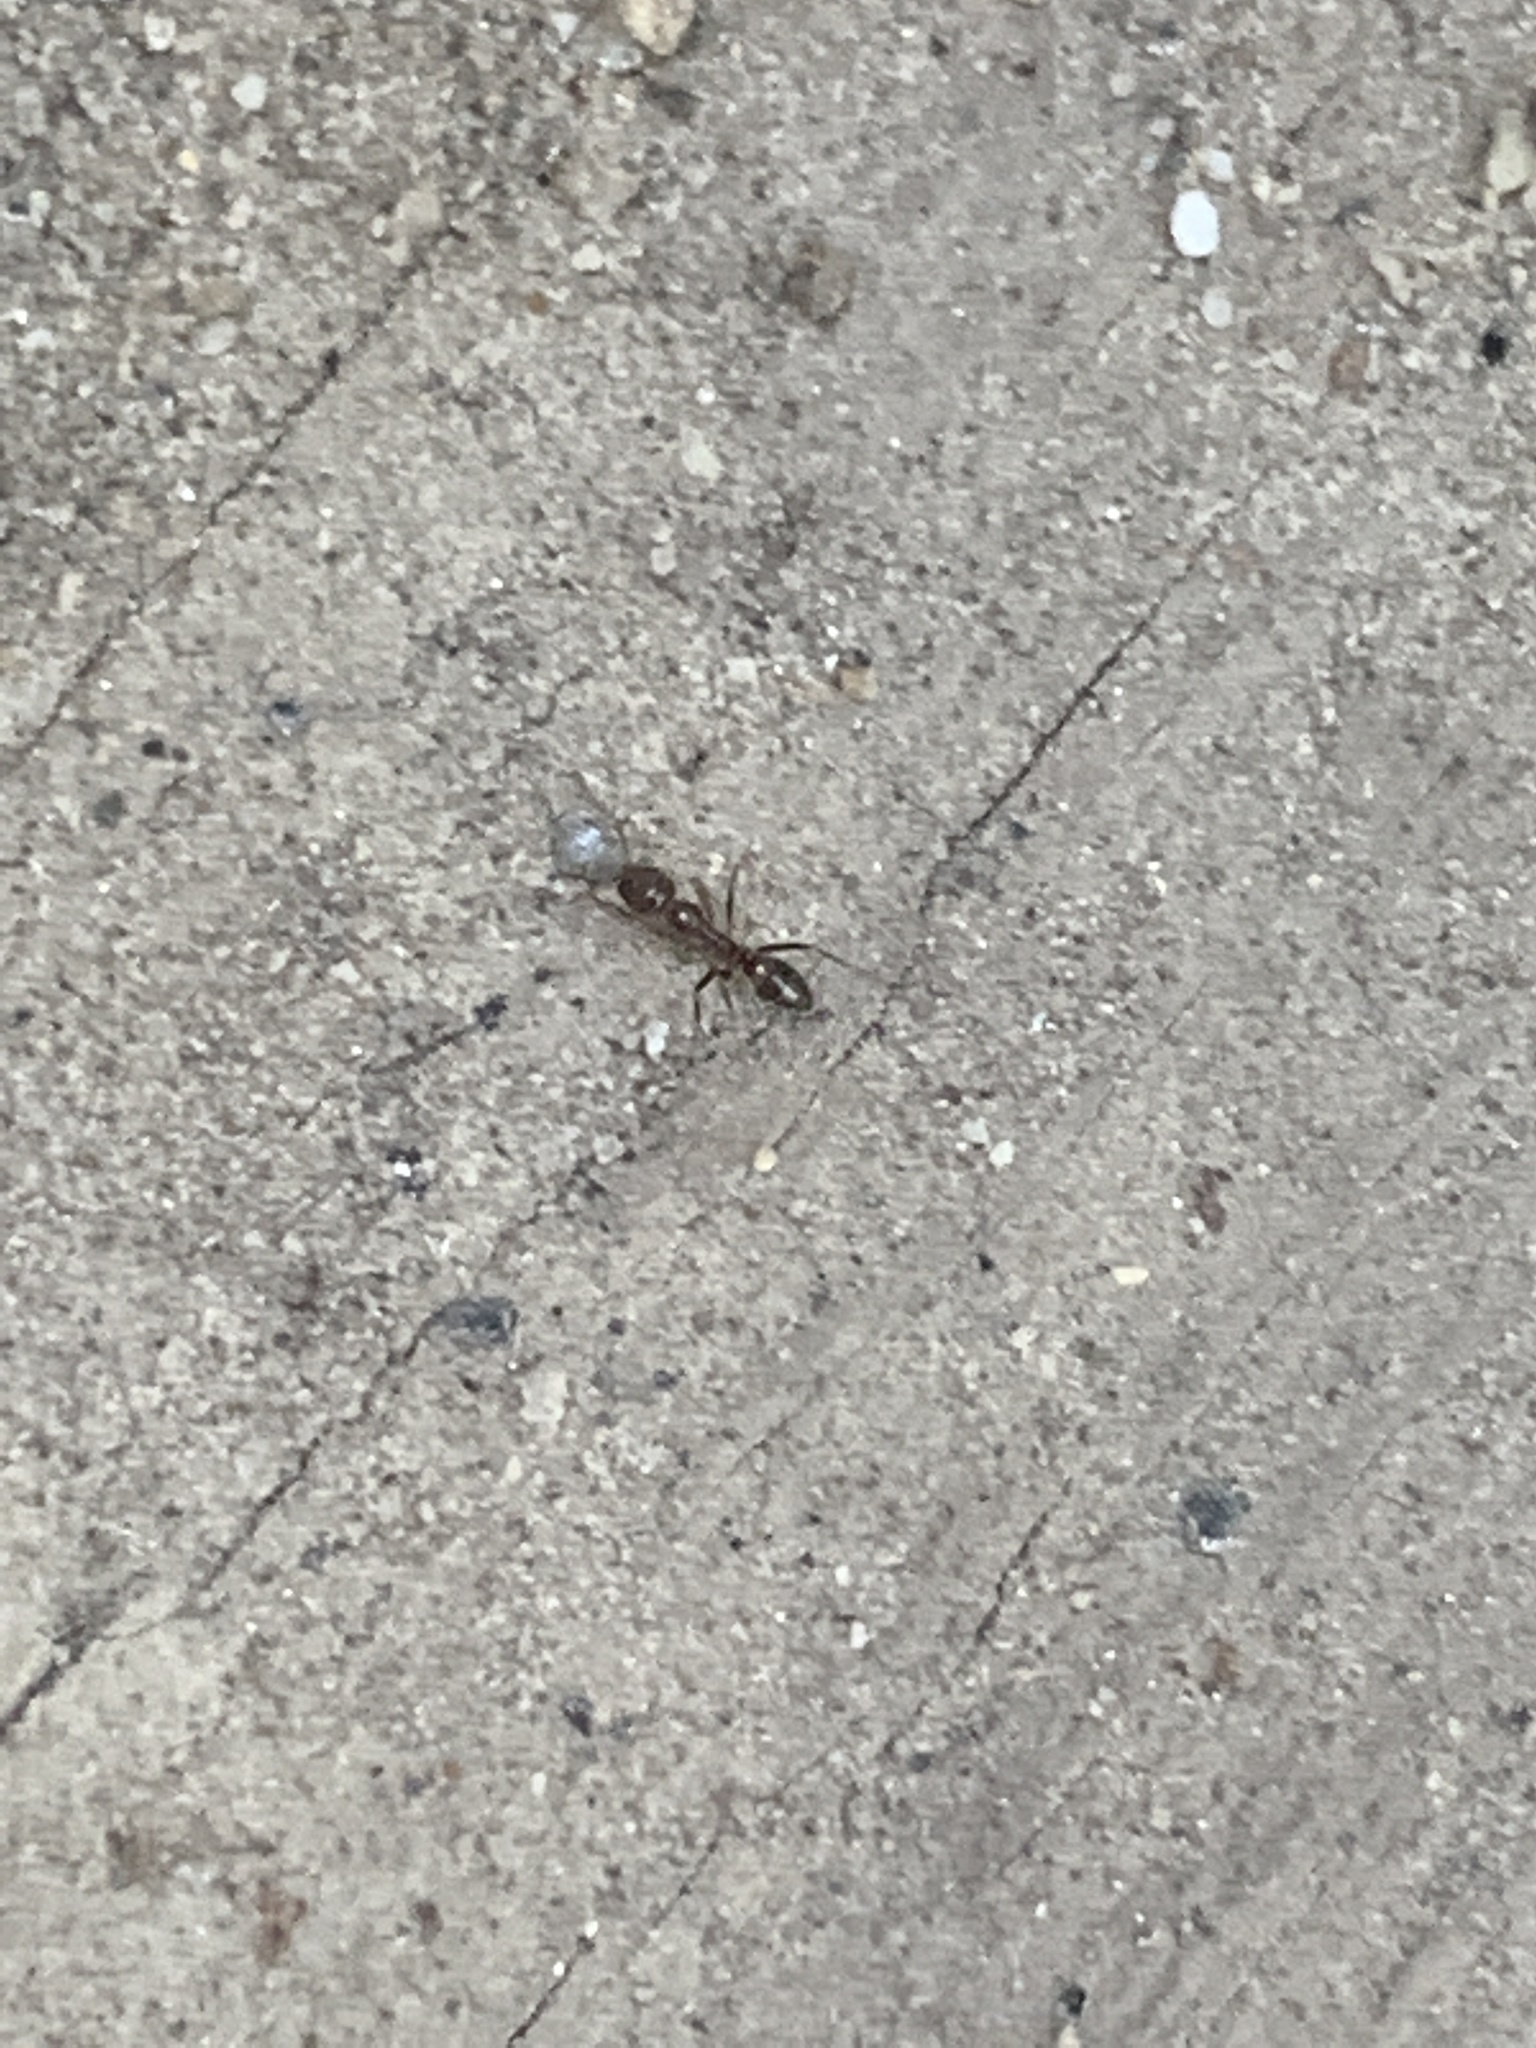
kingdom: Animalia
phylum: Arthropoda
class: Insecta
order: Hymenoptera
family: Formicidae
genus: Linepithema
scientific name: Linepithema humile
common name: Argentine ant
